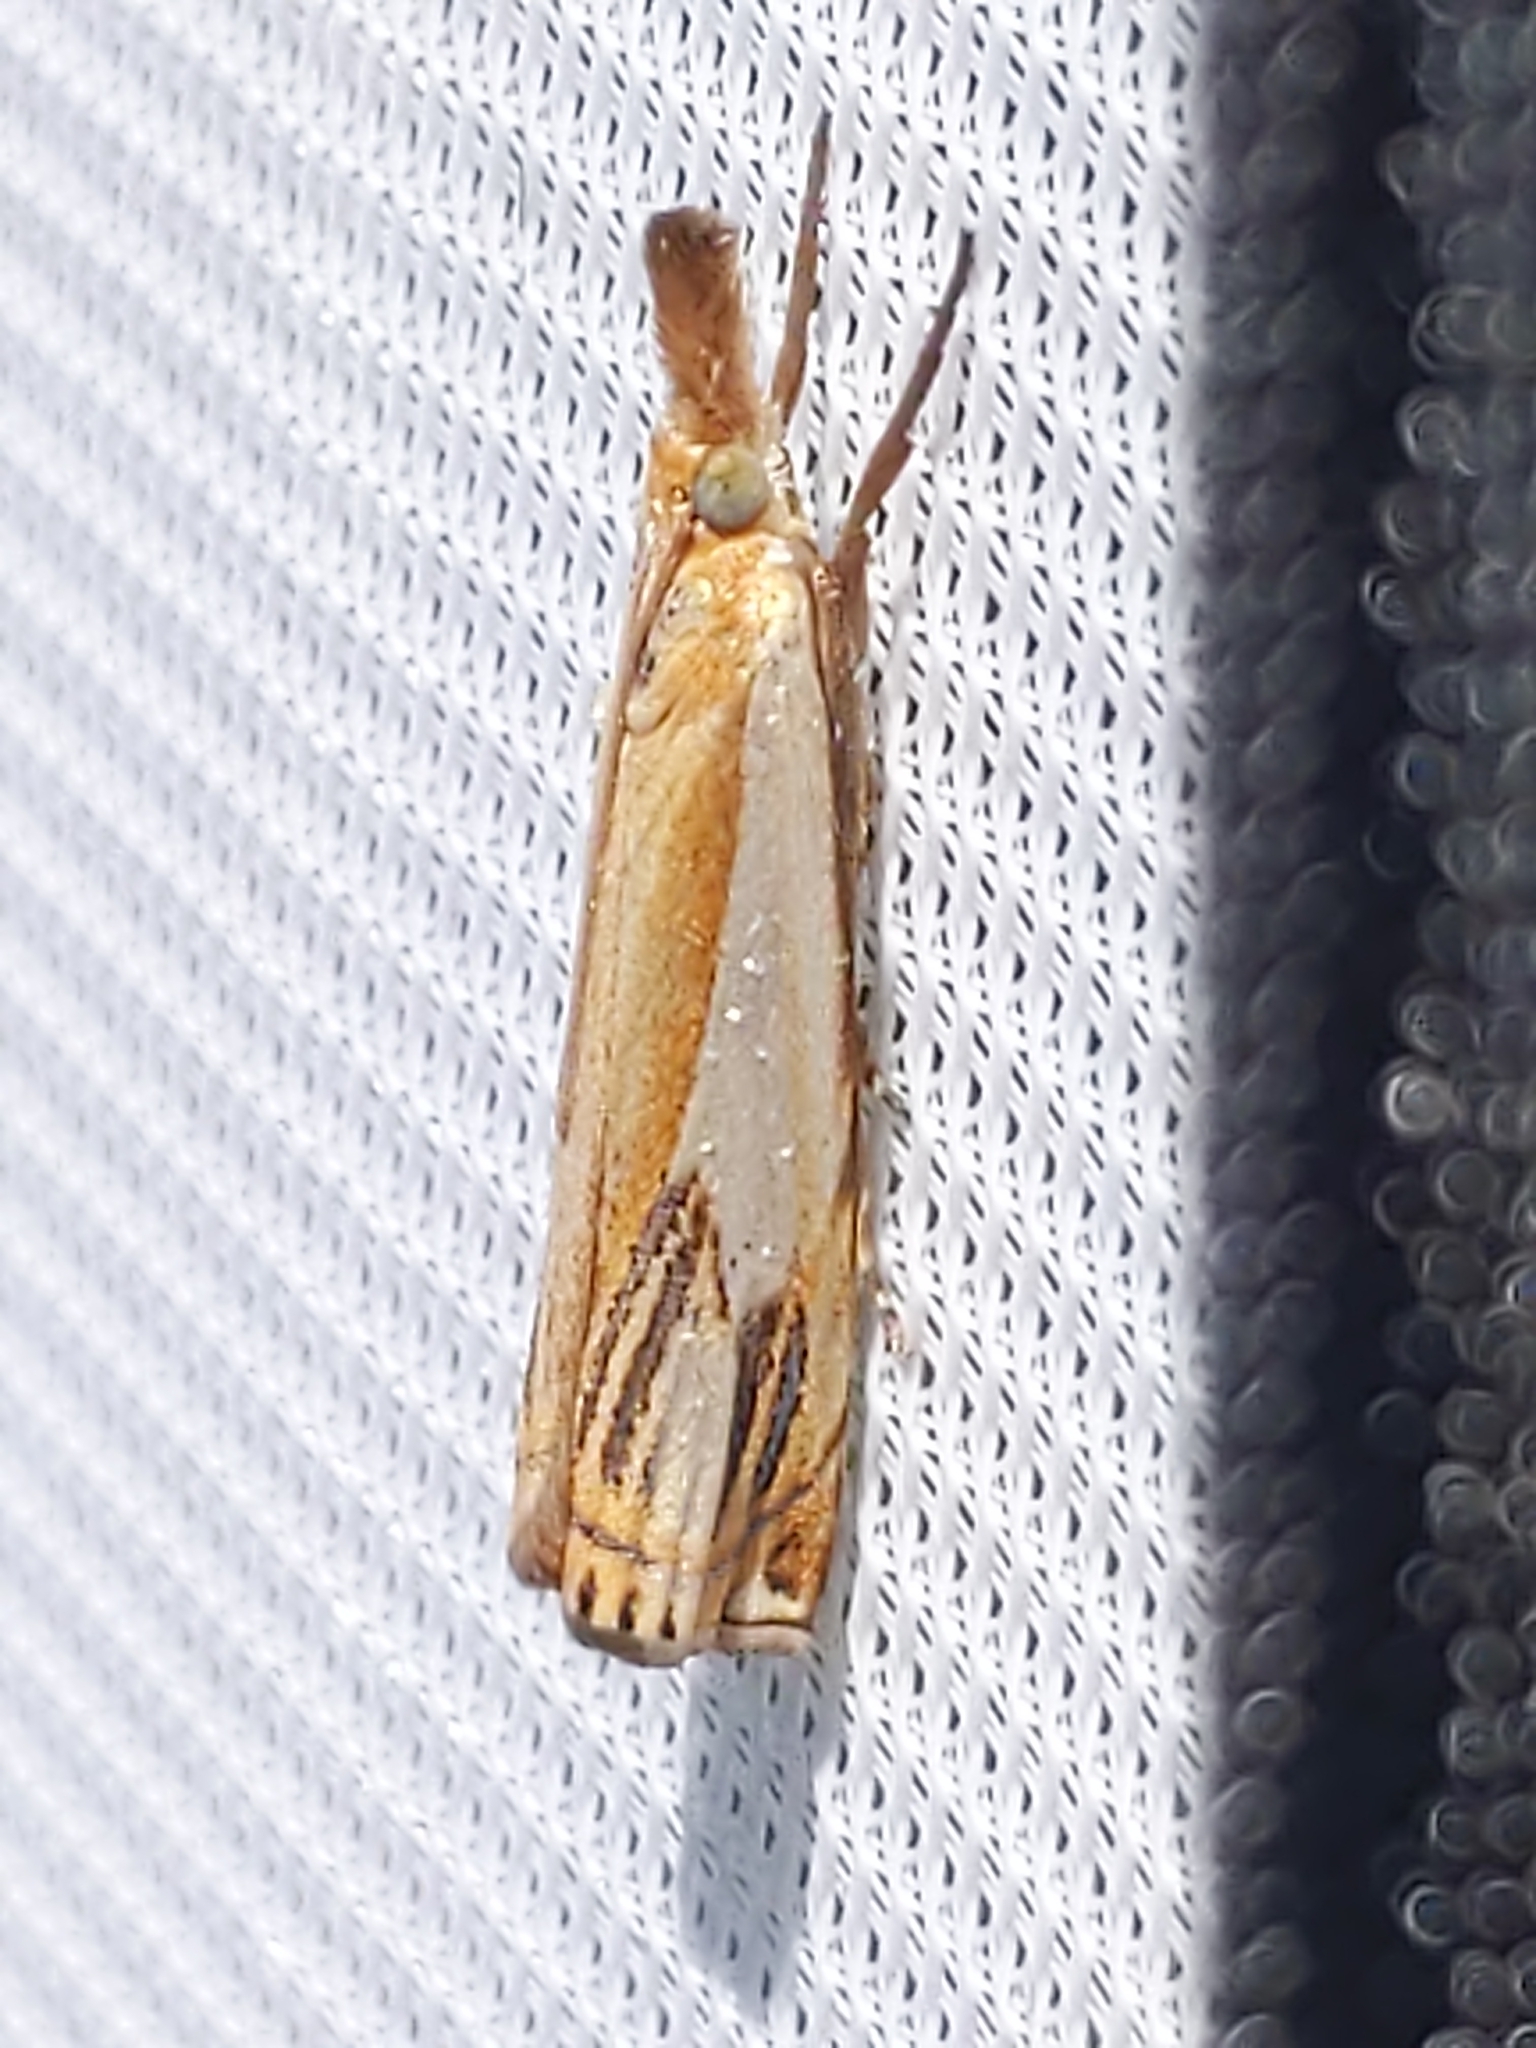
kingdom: Animalia
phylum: Arthropoda
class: Insecta
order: Lepidoptera
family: Crambidae
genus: Crambus
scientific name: Crambus agitatellus
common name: Double-banded grass-veneer
